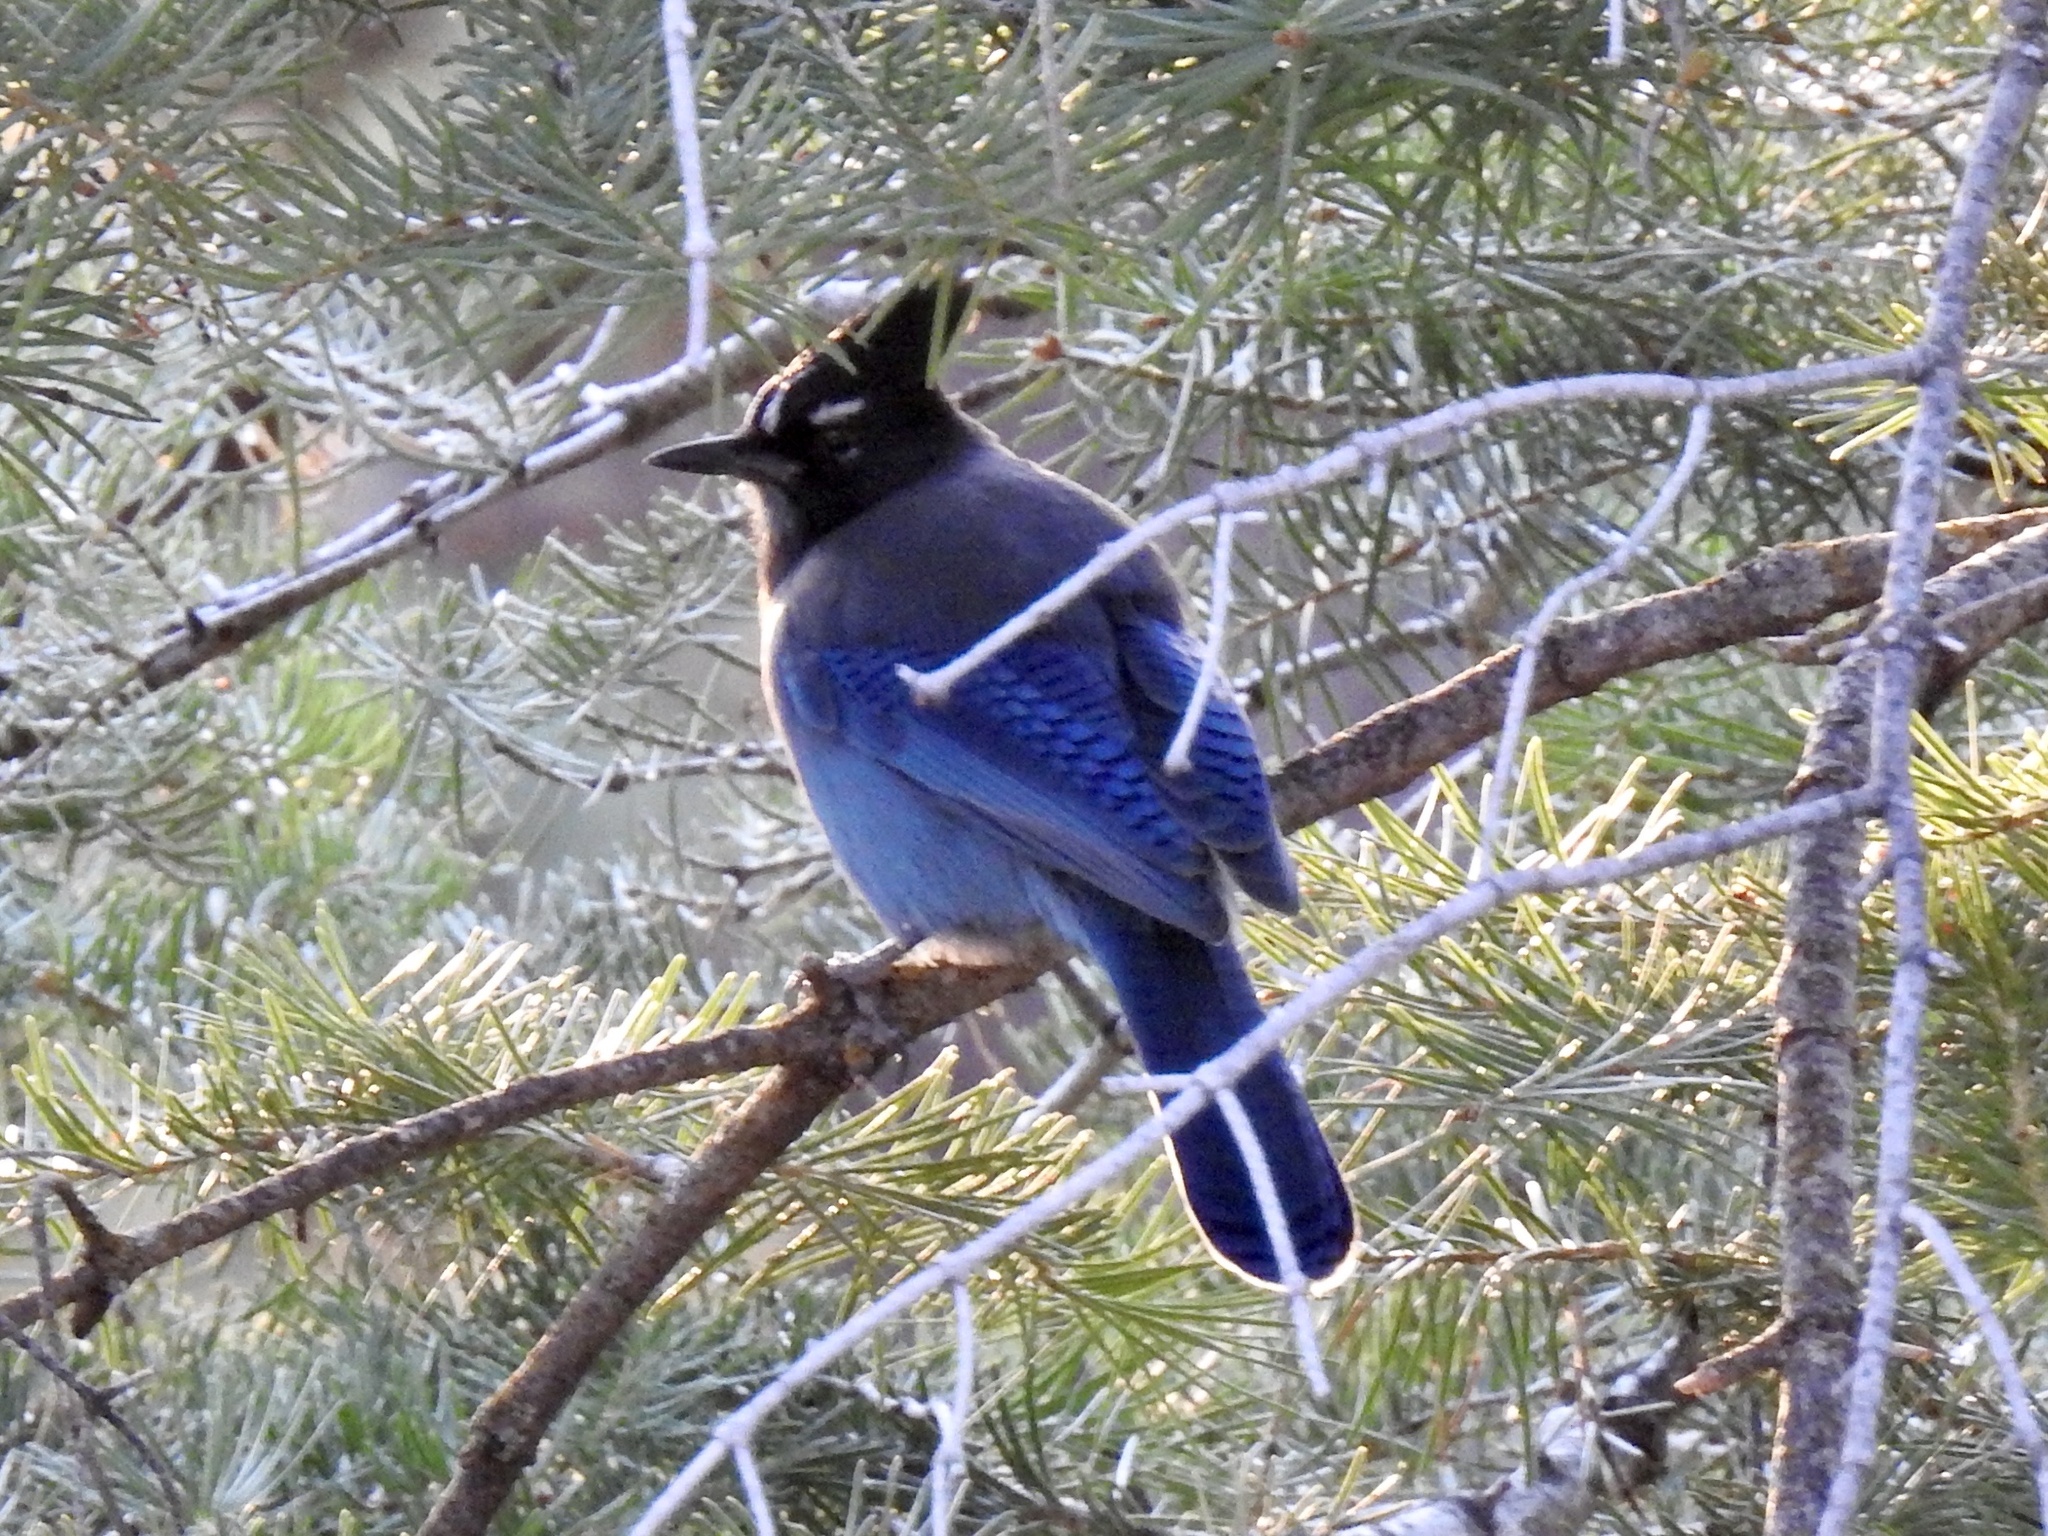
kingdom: Animalia
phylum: Chordata
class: Aves
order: Passeriformes
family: Corvidae
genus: Cyanocitta
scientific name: Cyanocitta stelleri
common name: Steller's jay
